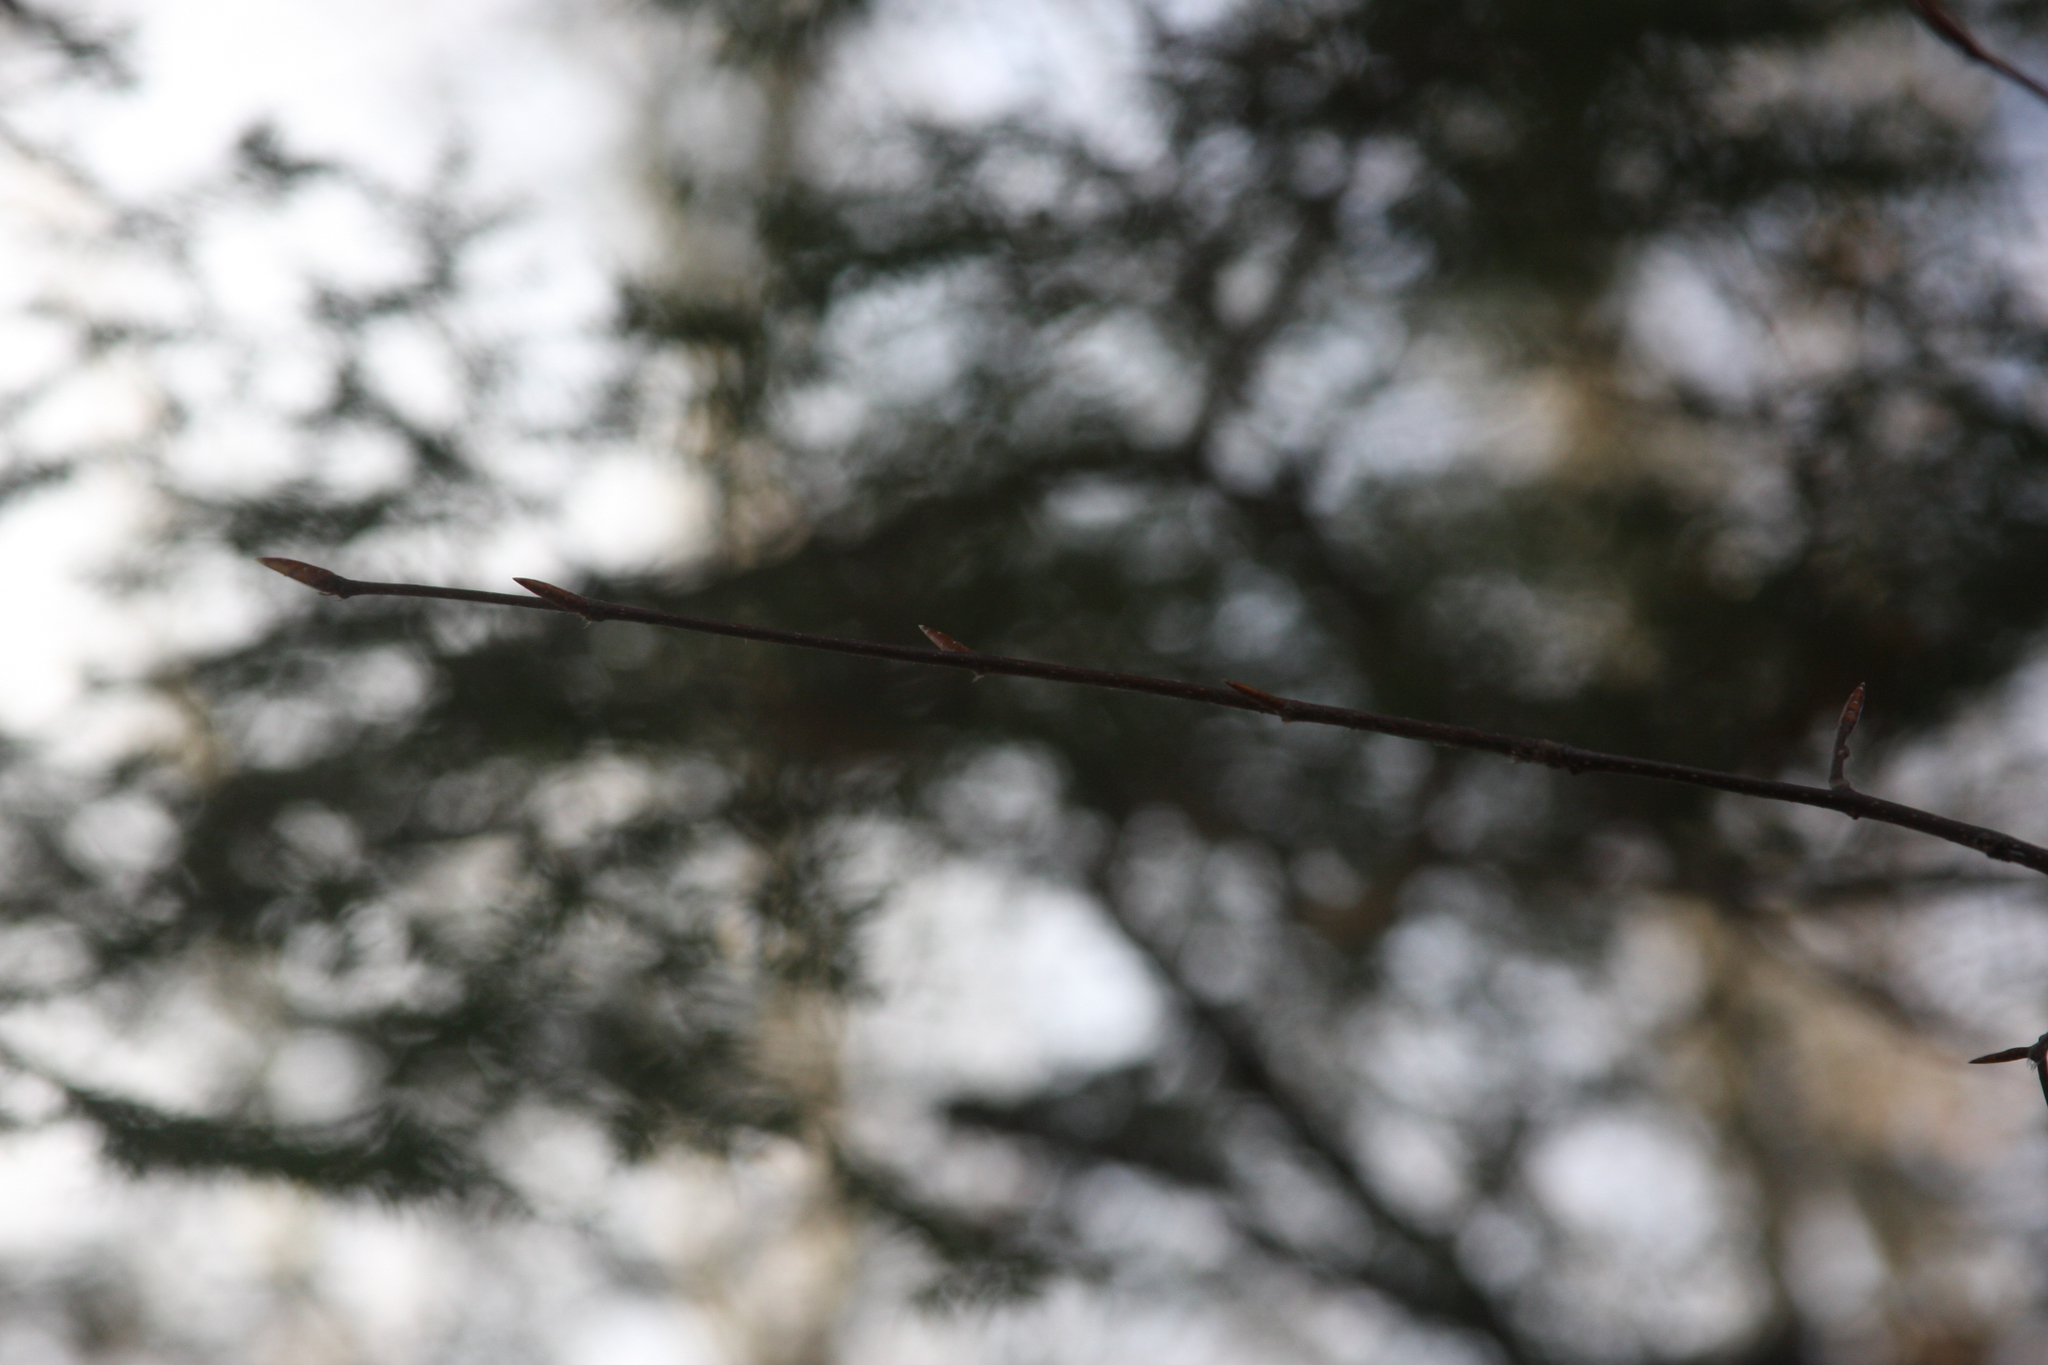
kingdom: Plantae
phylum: Tracheophyta
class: Magnoliopsida
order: Fagales
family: Fagaceae
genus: Fagus
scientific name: Fagus grandifolia
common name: American beech
